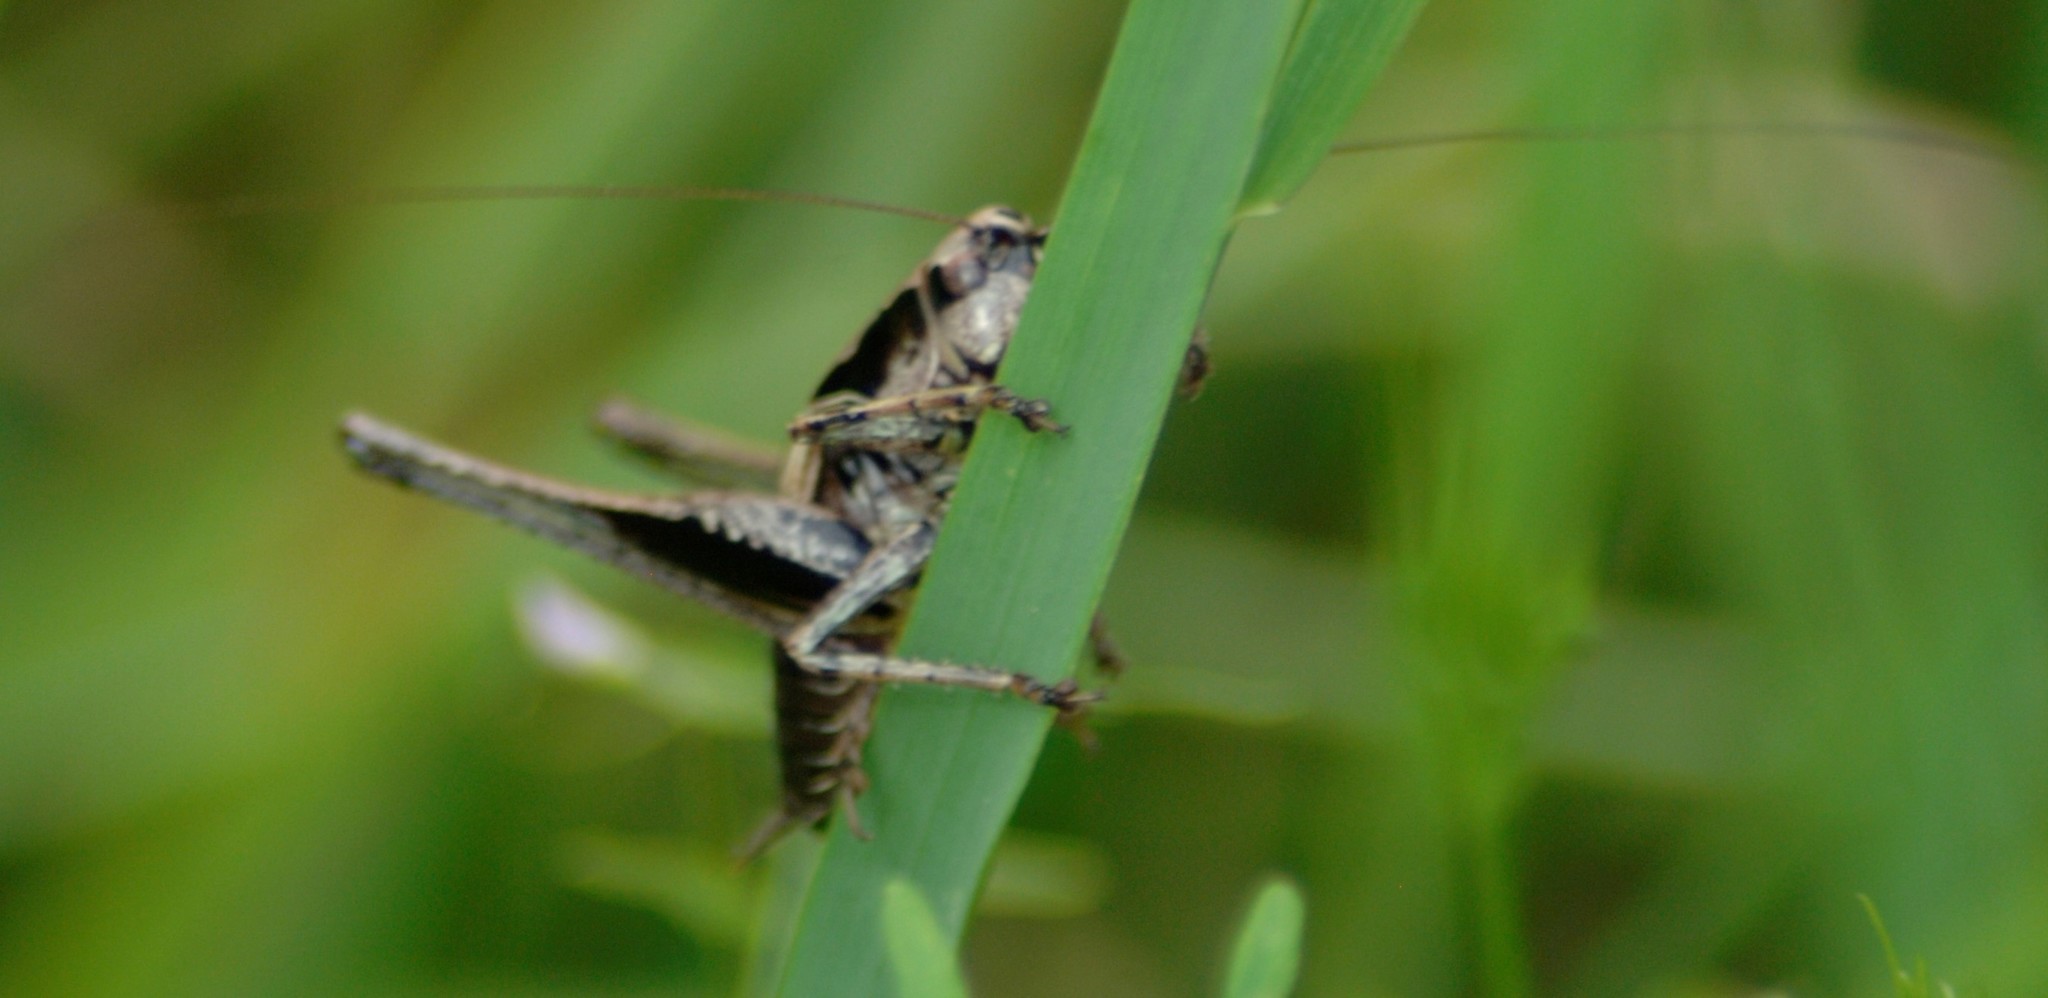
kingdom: Animalia
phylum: Arthropoda
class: Insecta
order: Orthoptera
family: Tettigoniidae
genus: Pholidoptera
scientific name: Pholidoptera griseoaptera
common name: Dark bush-cricket
